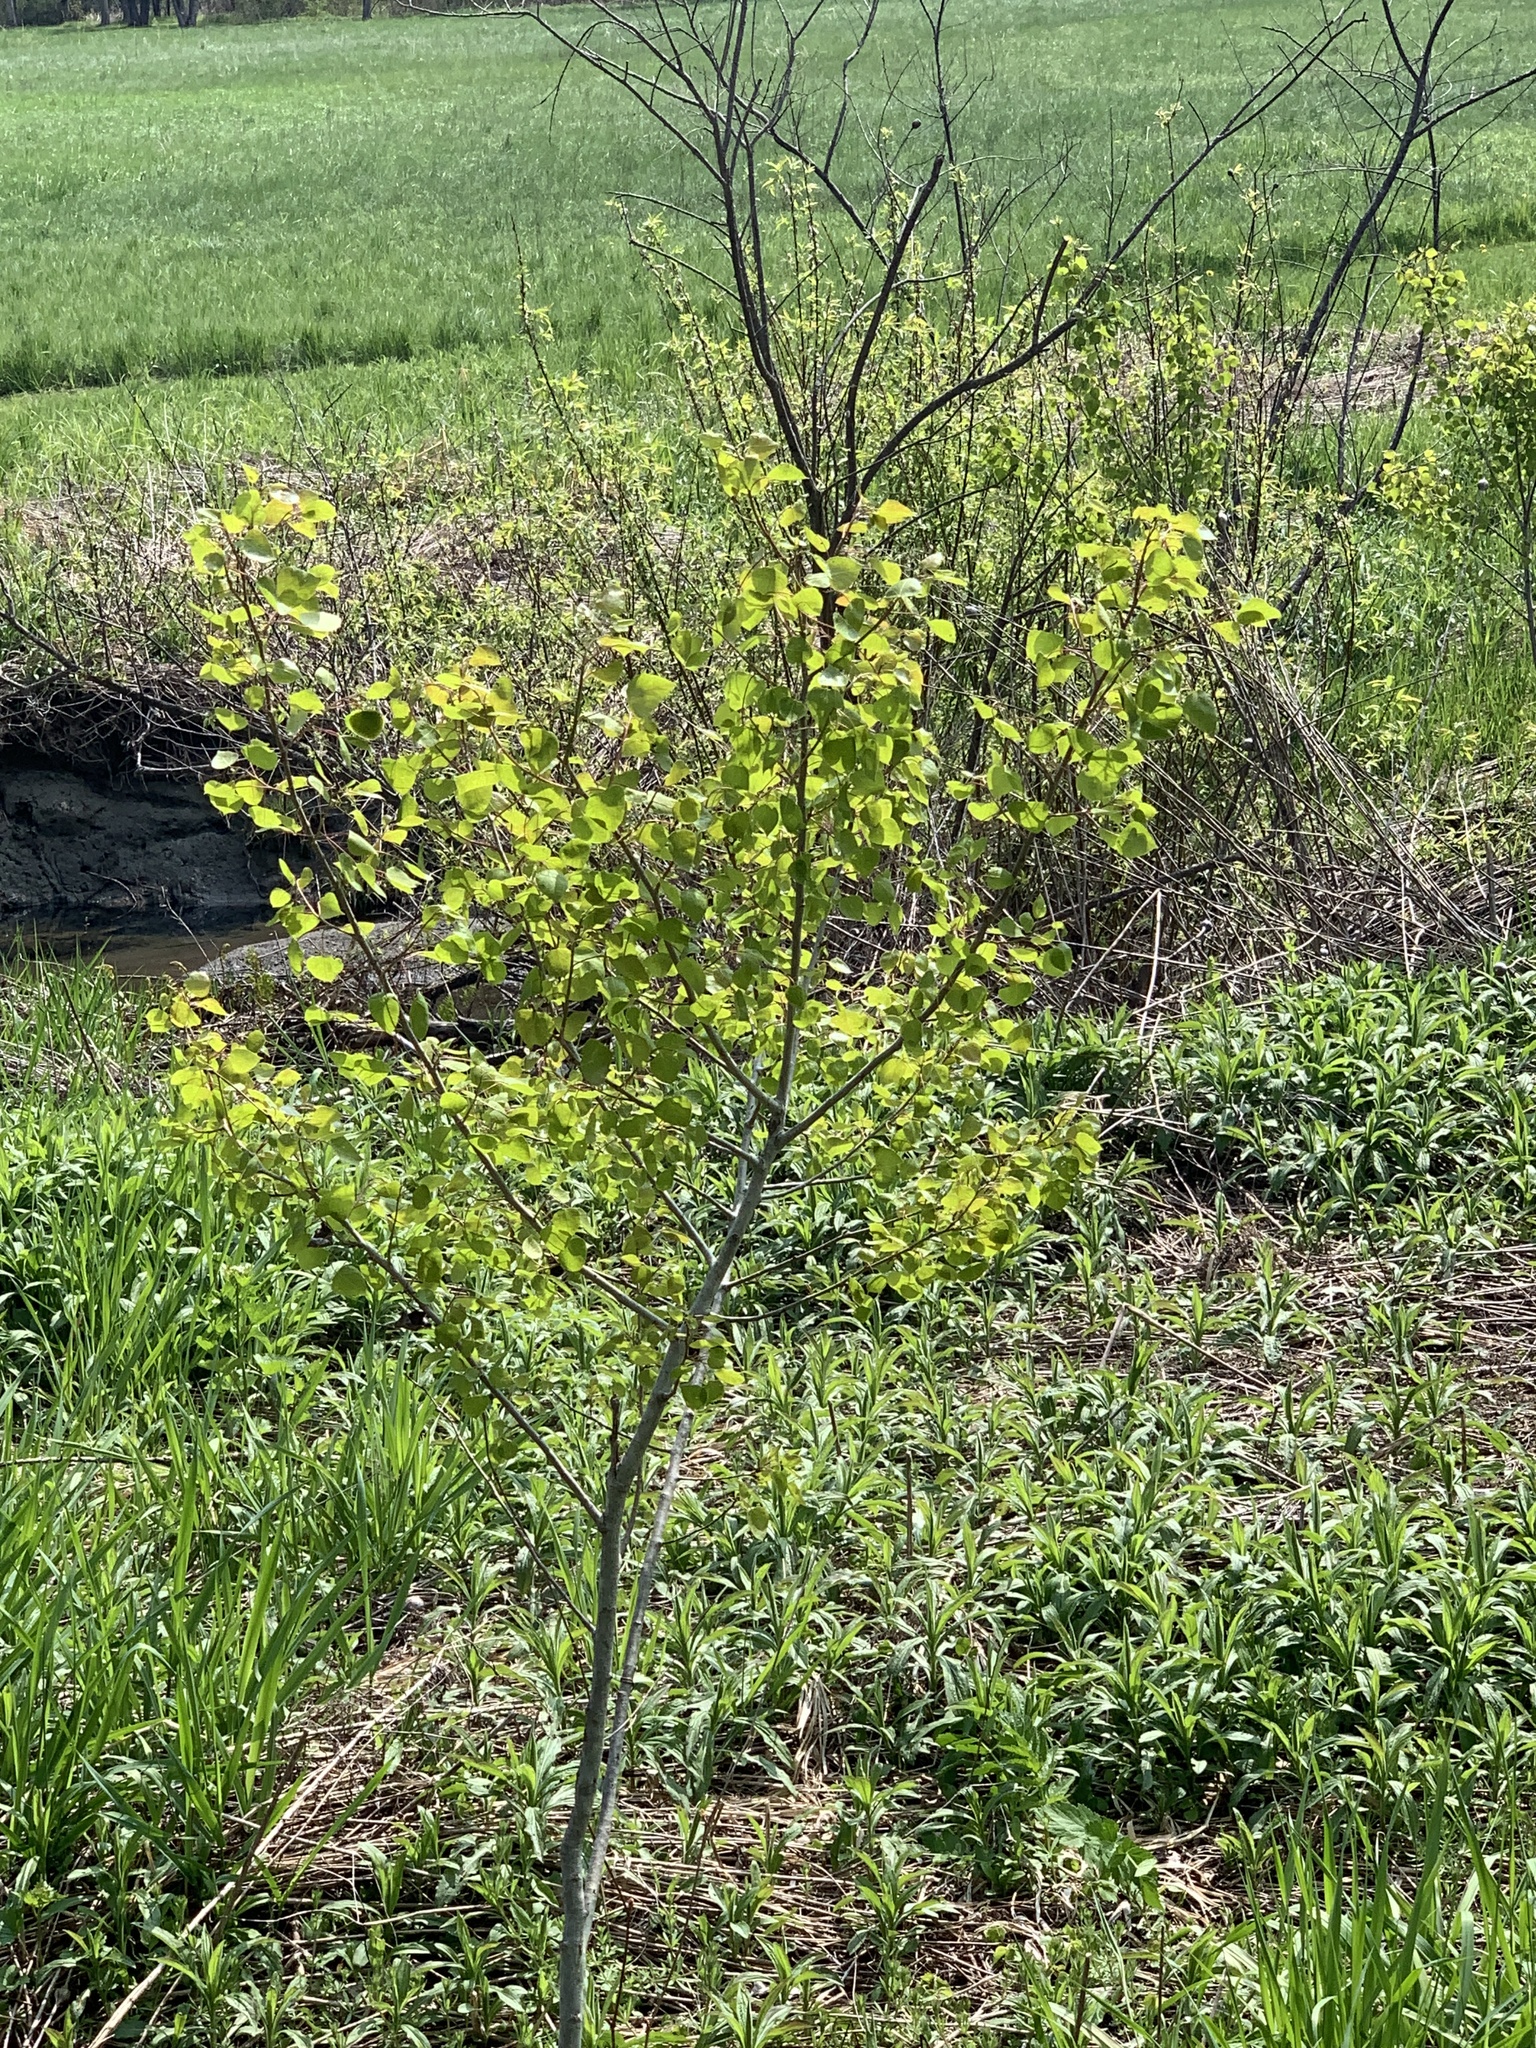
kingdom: Plantae
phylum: Tracheophyta
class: Magnoliopsida
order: Malpighiales
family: Salicaceae
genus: Populus
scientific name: Populus tremuloides
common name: Quaking aspen
